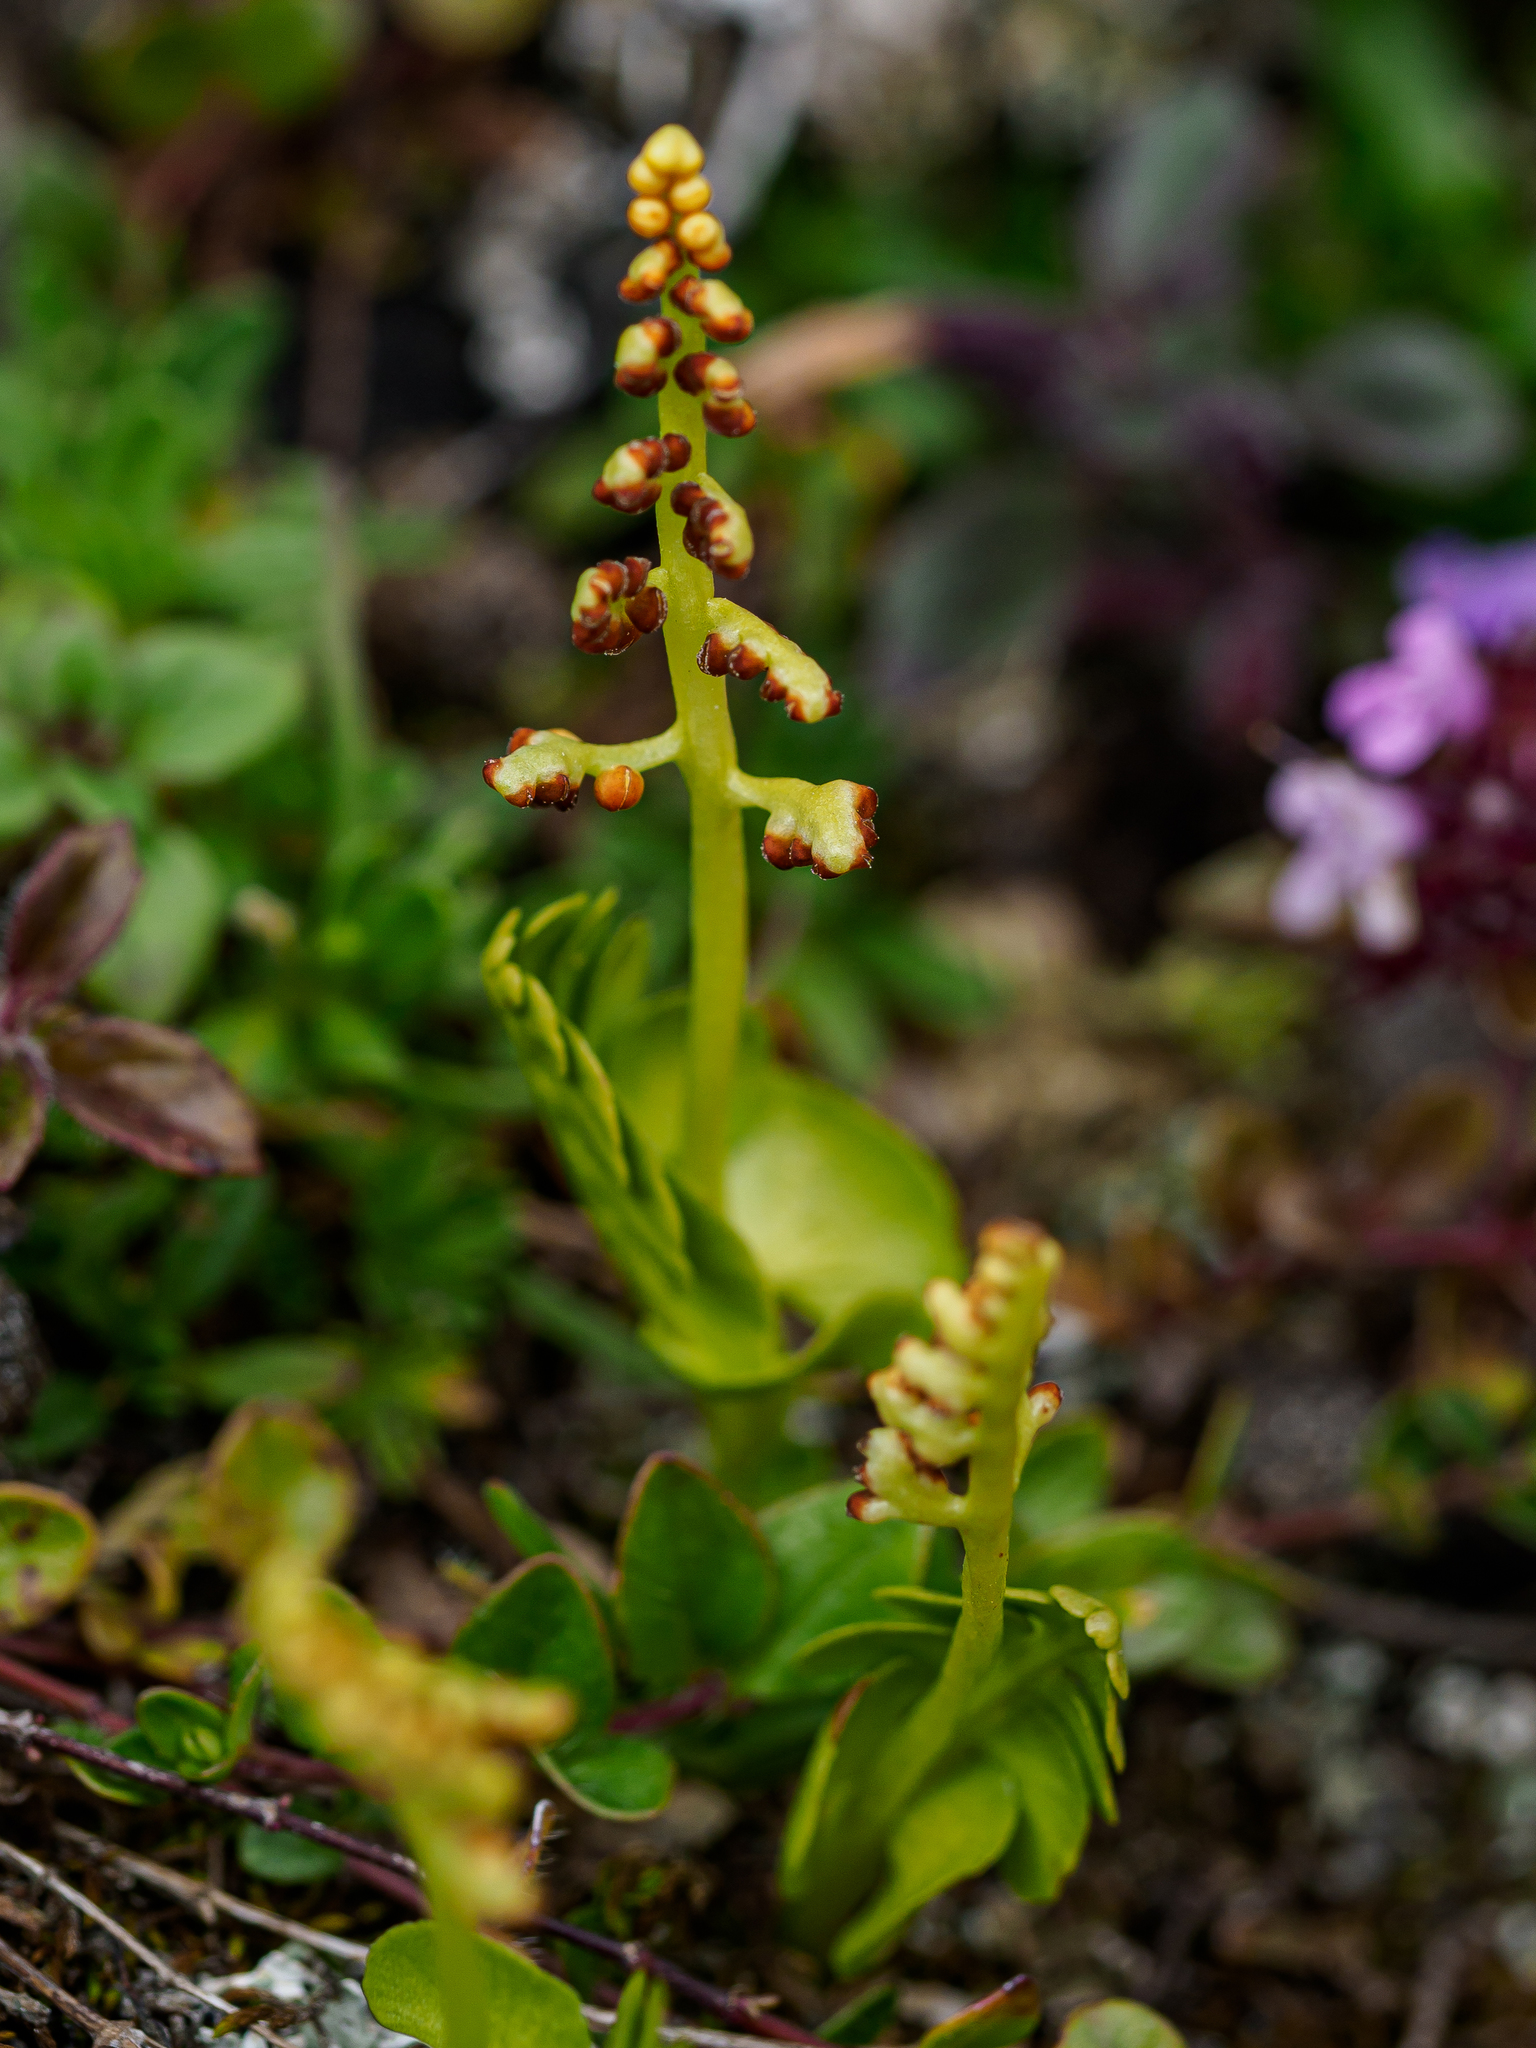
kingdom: Plantae
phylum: Tracheophyta
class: Polypodiopsida
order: Ophioglossales
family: Ophioglossaceae
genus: Botrychium
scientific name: Botrychium lunaria
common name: Moonwort
